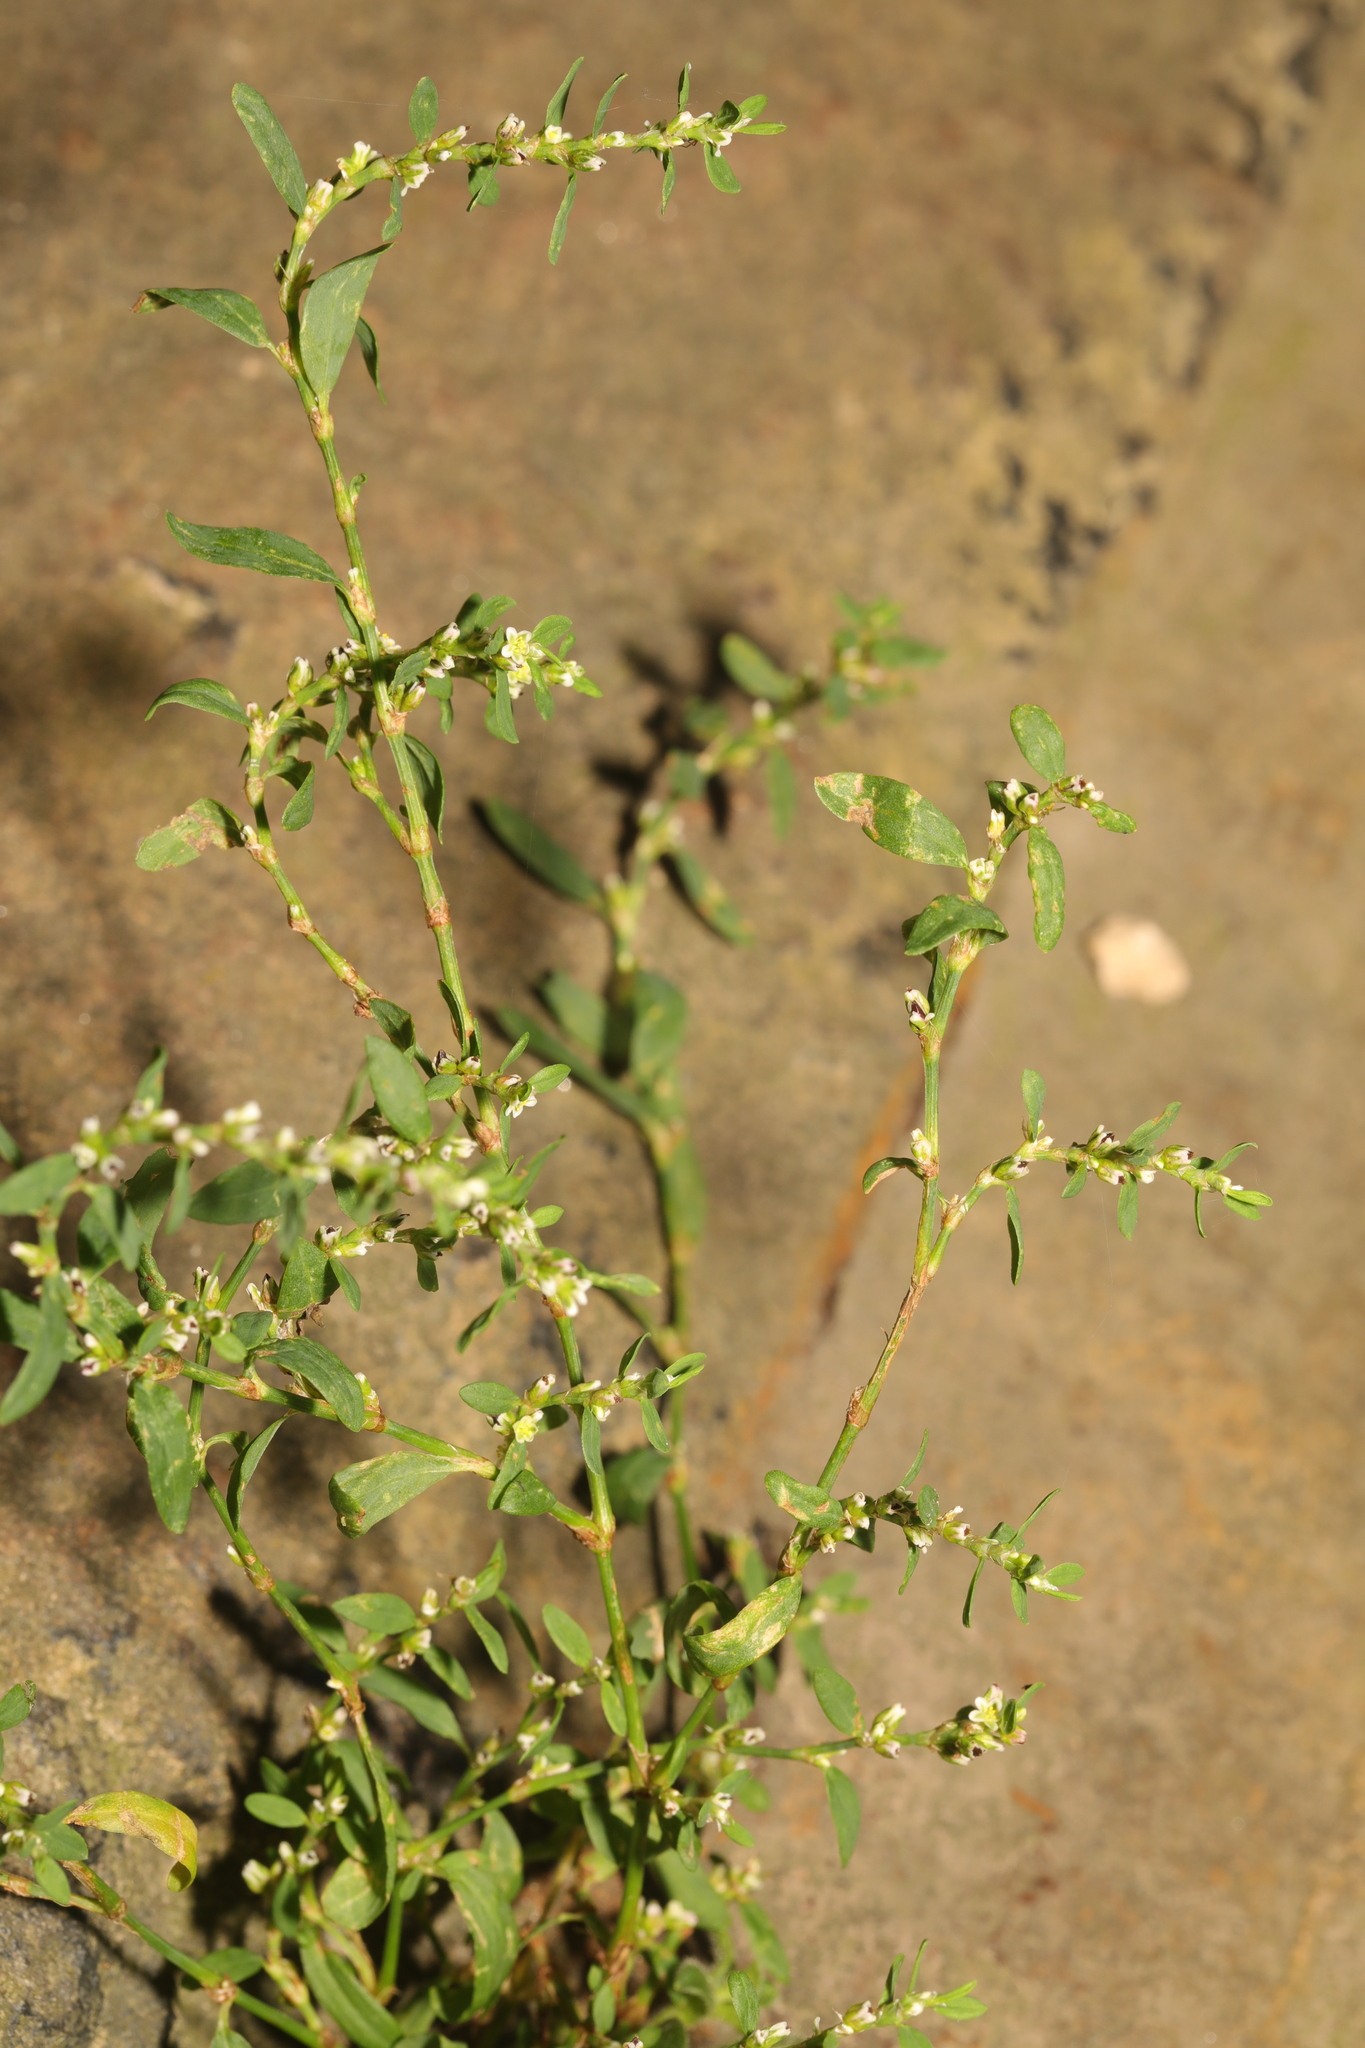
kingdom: Plantae
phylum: Tracheophyta
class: Magnoliopsida
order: Caryophyllales
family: Polygonaceae
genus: Polygonum
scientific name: Polygonum aviculare
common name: Prostrate knotweed
